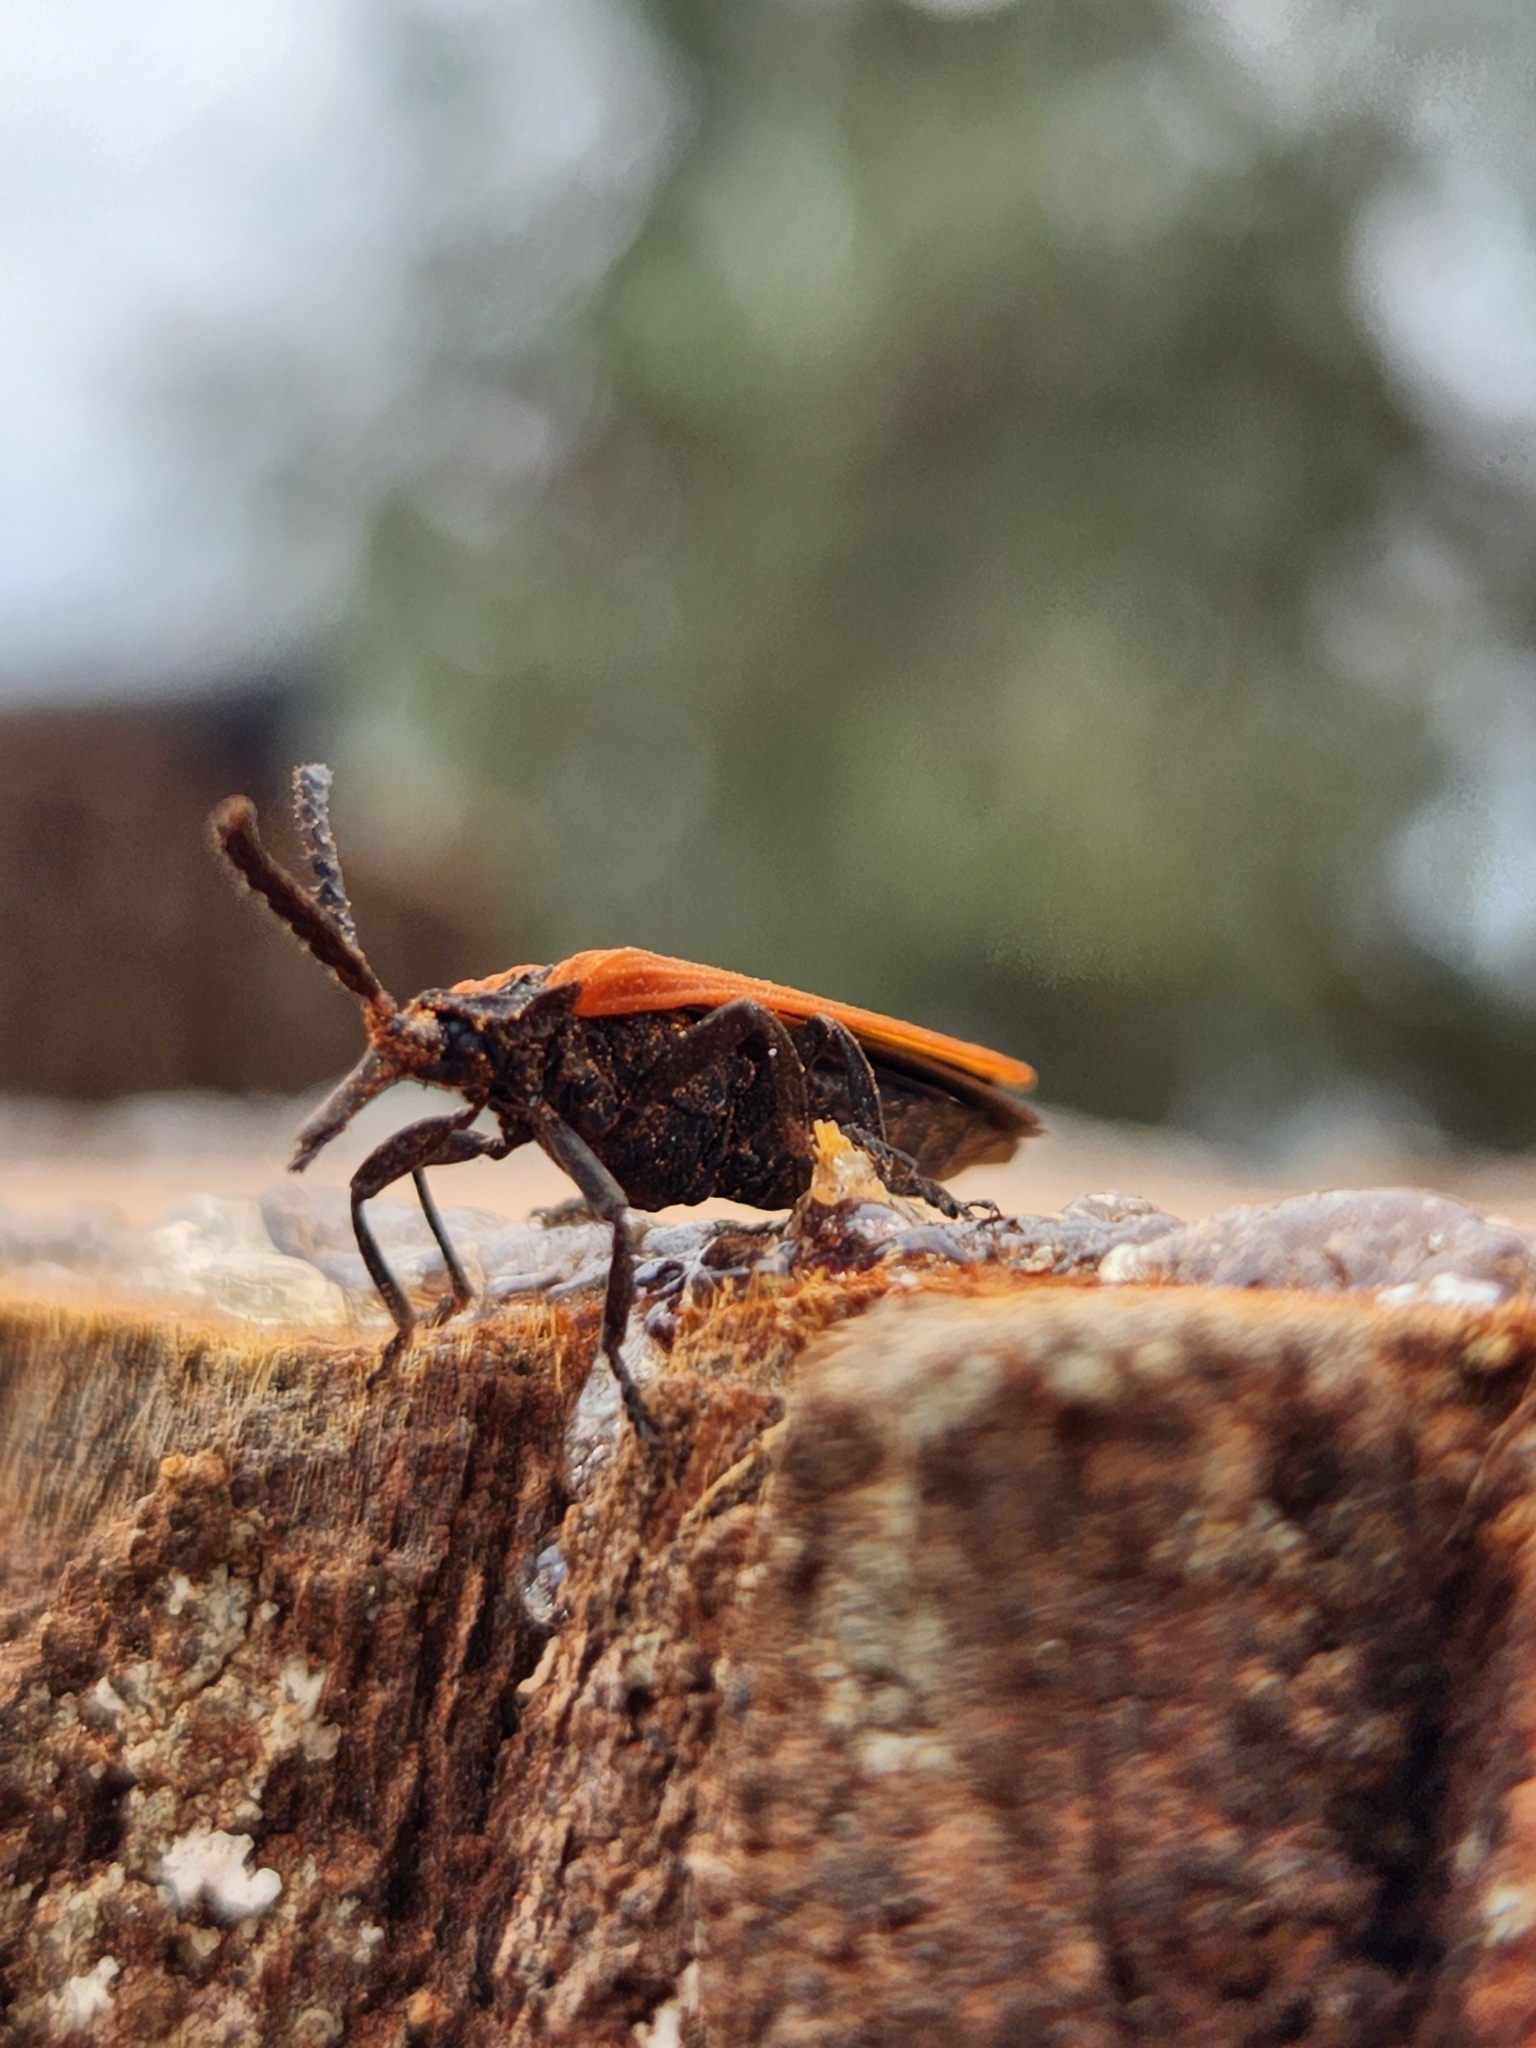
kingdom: Animalia
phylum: Arthropoda
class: Insecta
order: Coleoptera
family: Lycidae
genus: Porrostoma
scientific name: Porrostoma rhipidium
